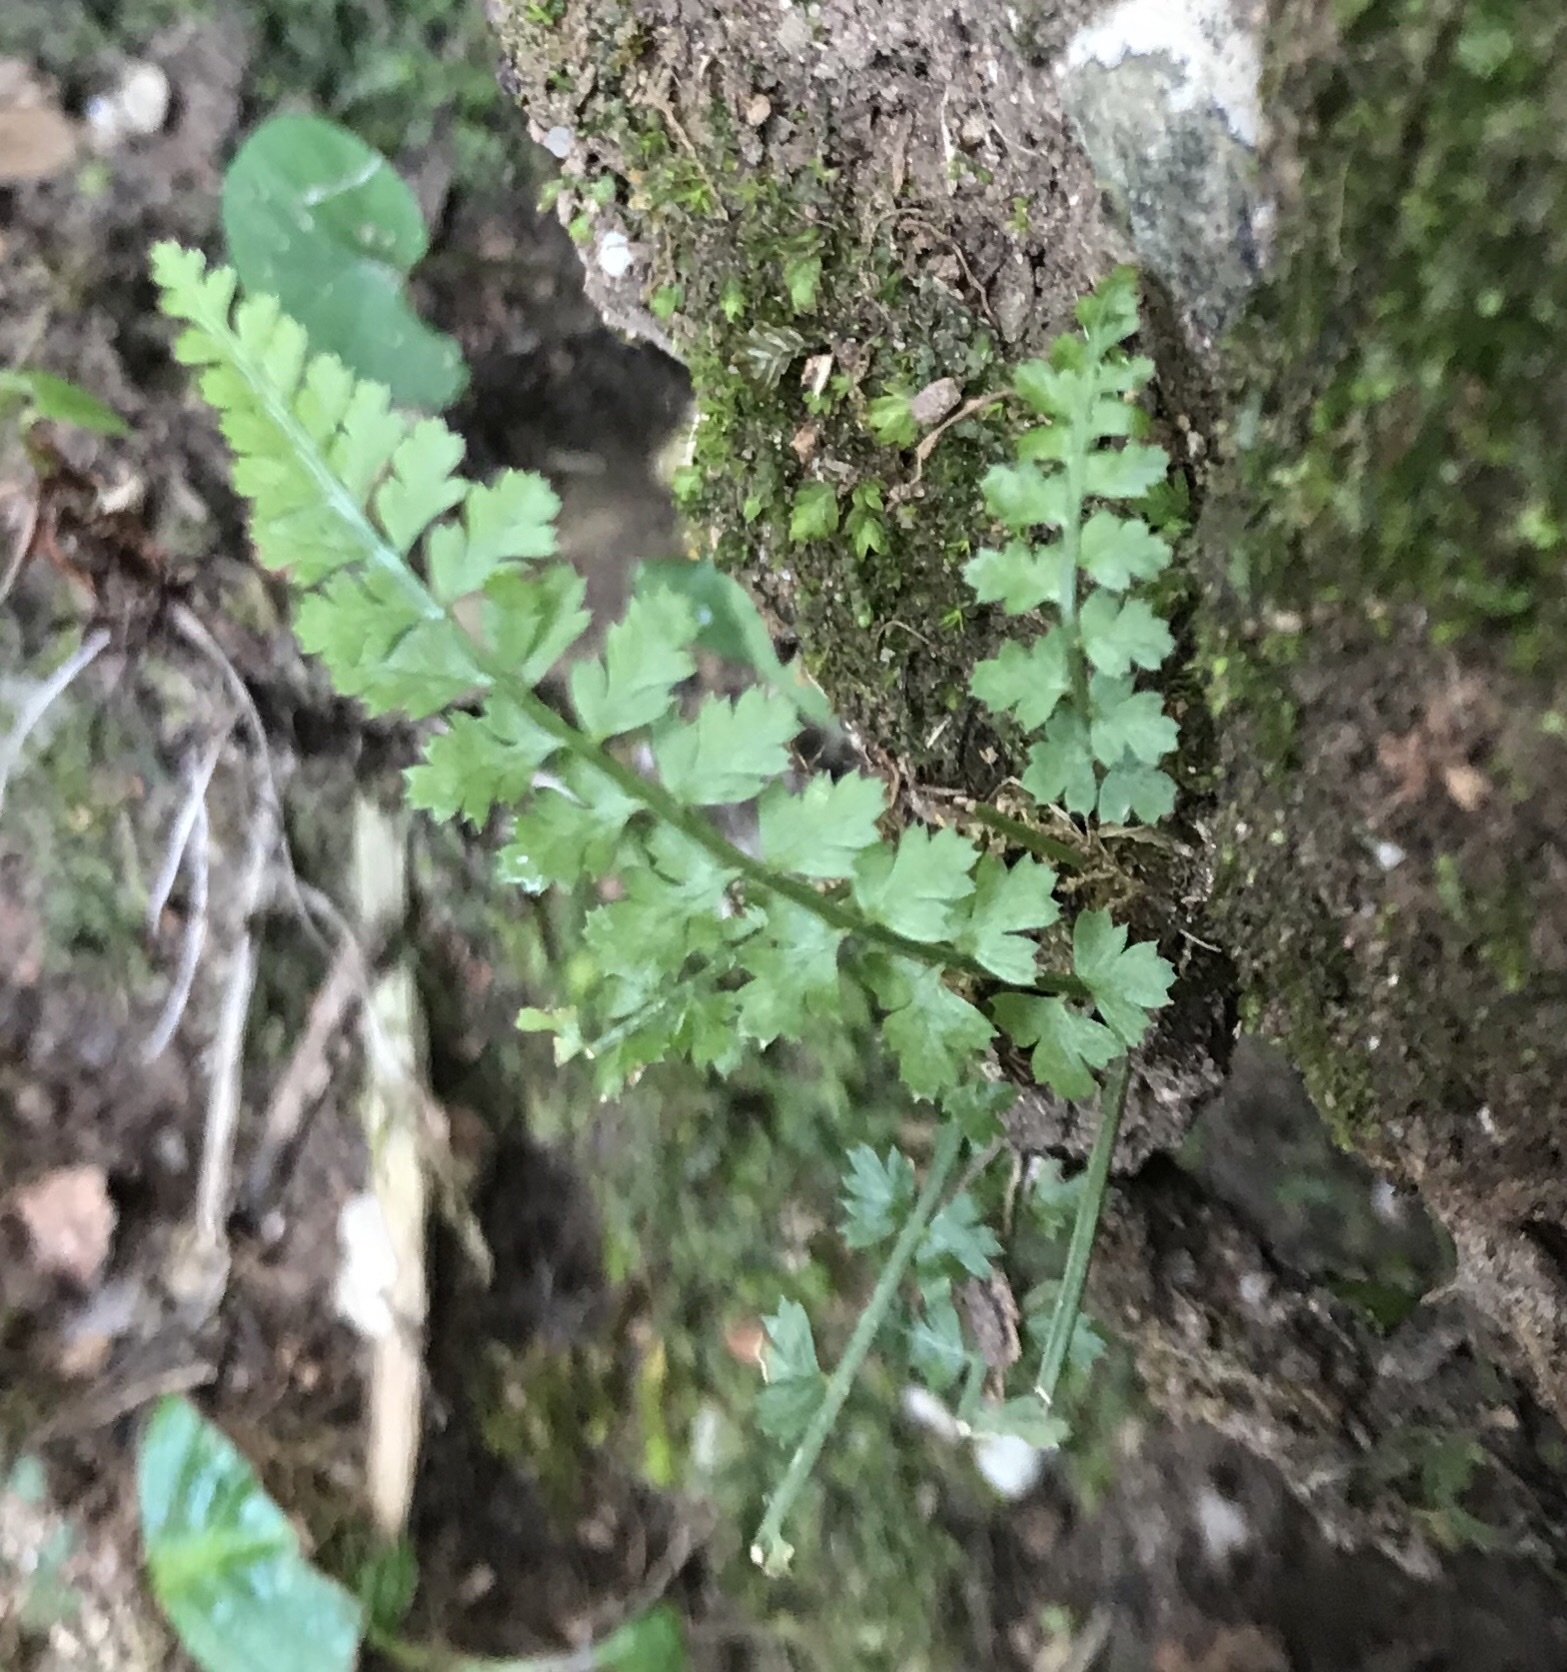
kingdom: Plantae
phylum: Tracheophyta
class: Polypodiopsida
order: Polypodiales
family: Aspleniaceae
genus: Asplenium
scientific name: Asplenium fontanum
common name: Fountain spleenwort
